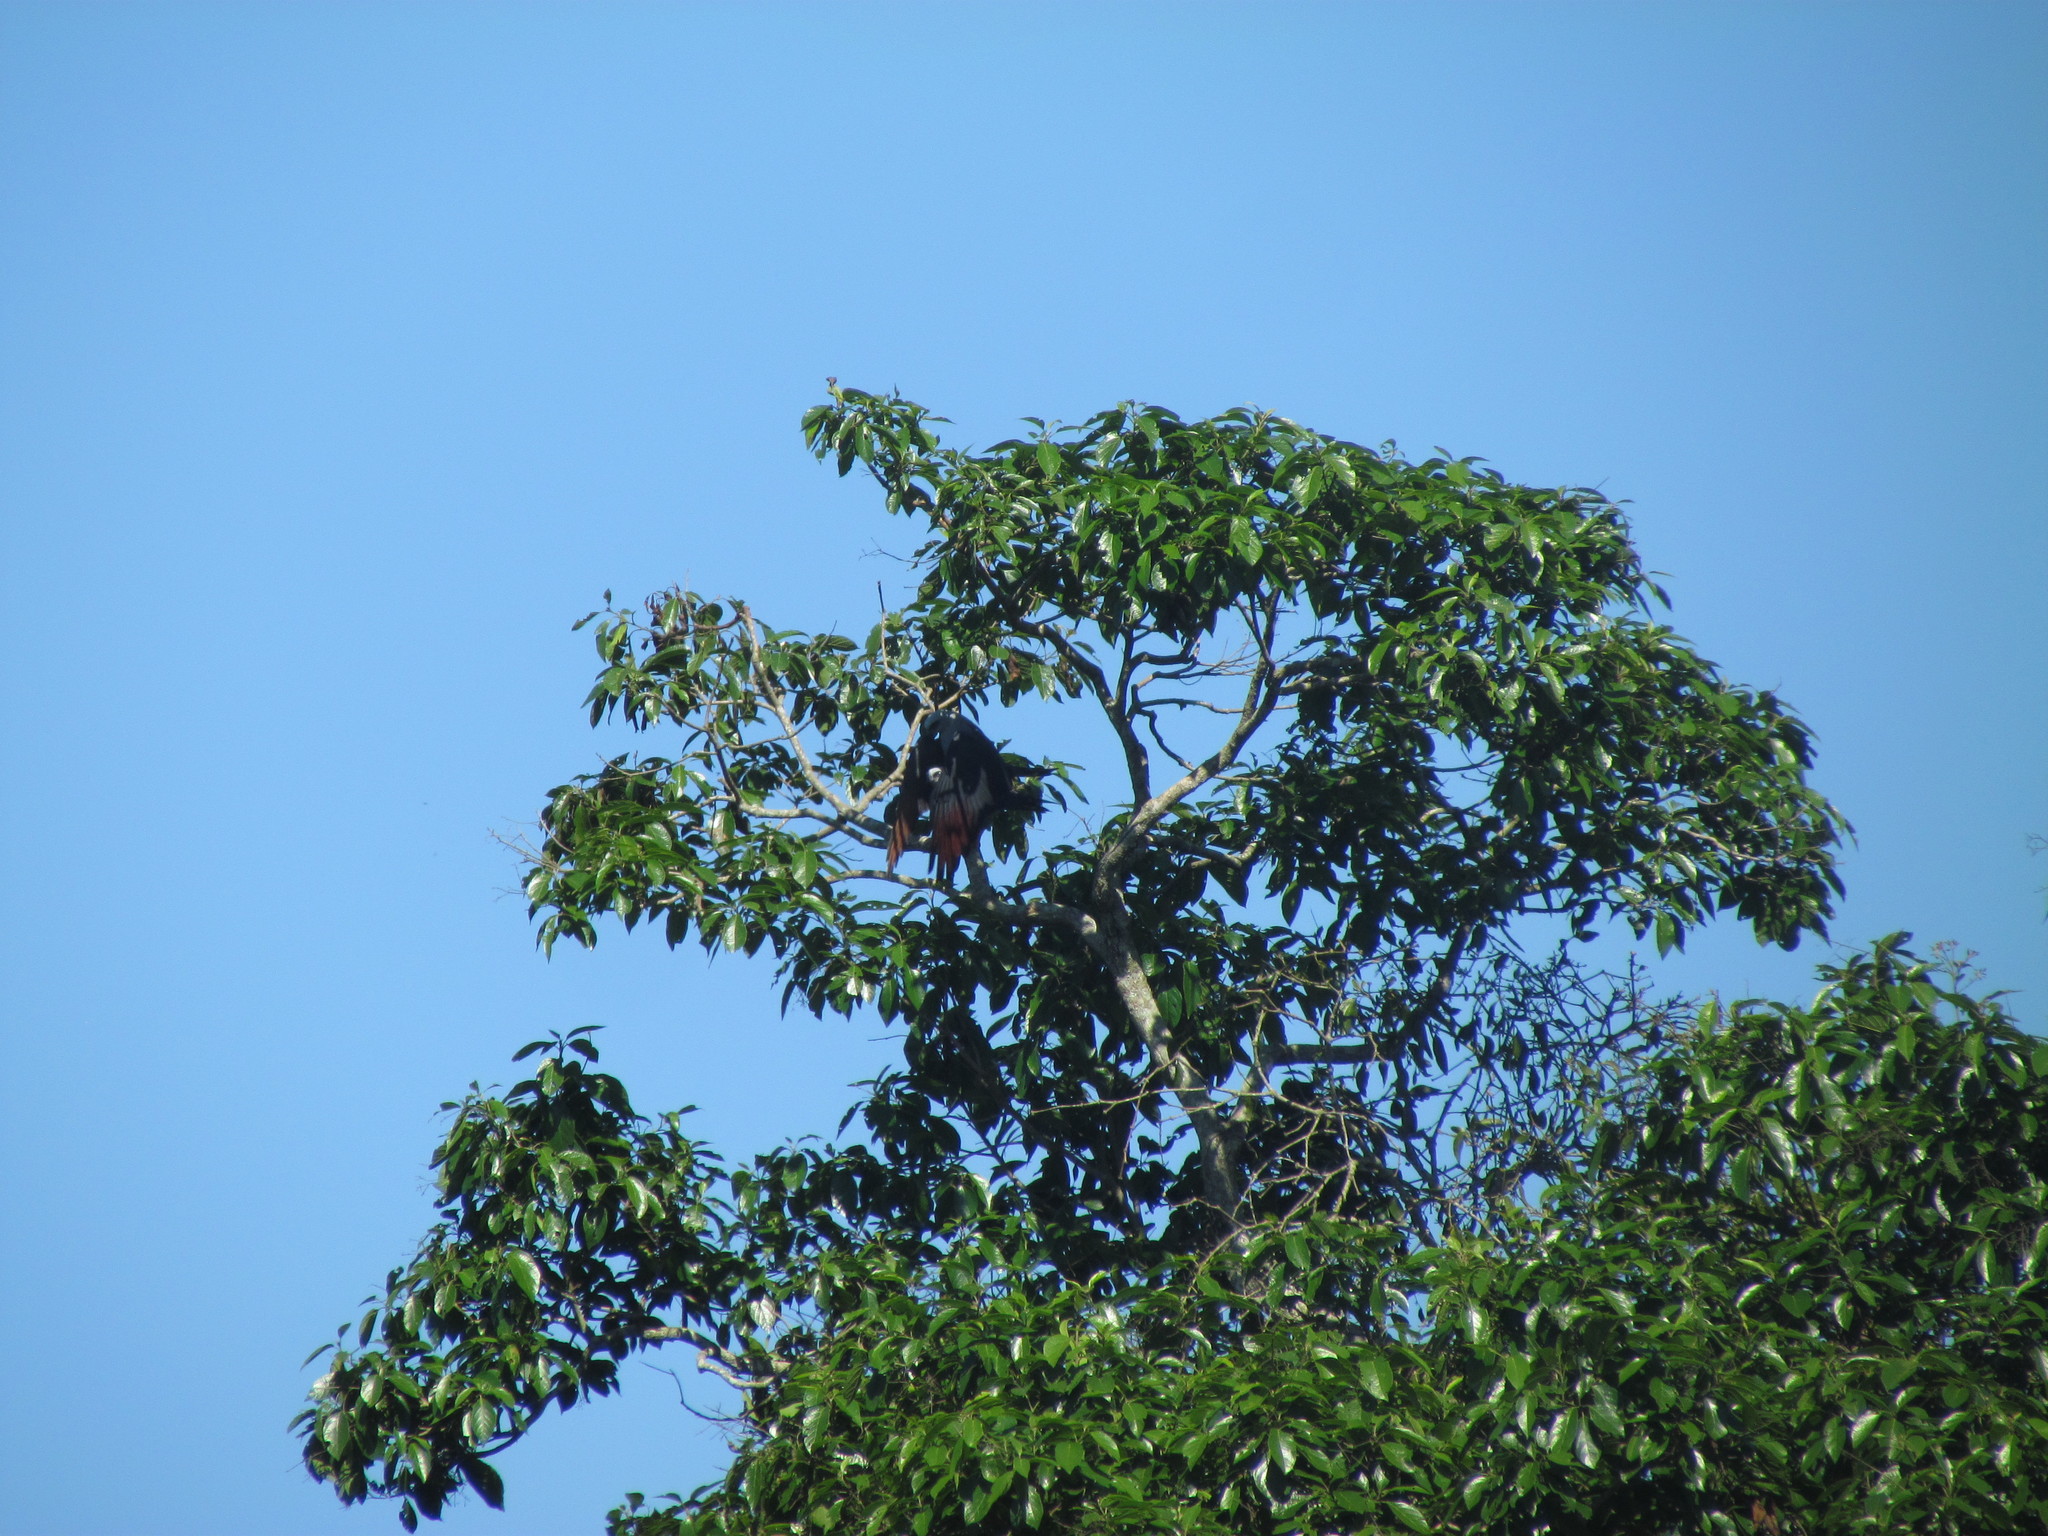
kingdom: Animalia
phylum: Chordata
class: Aves
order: Accipitriformes
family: Accipitridae
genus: Ictinia
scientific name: Ictinia plumbea
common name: Plumbeous kite
